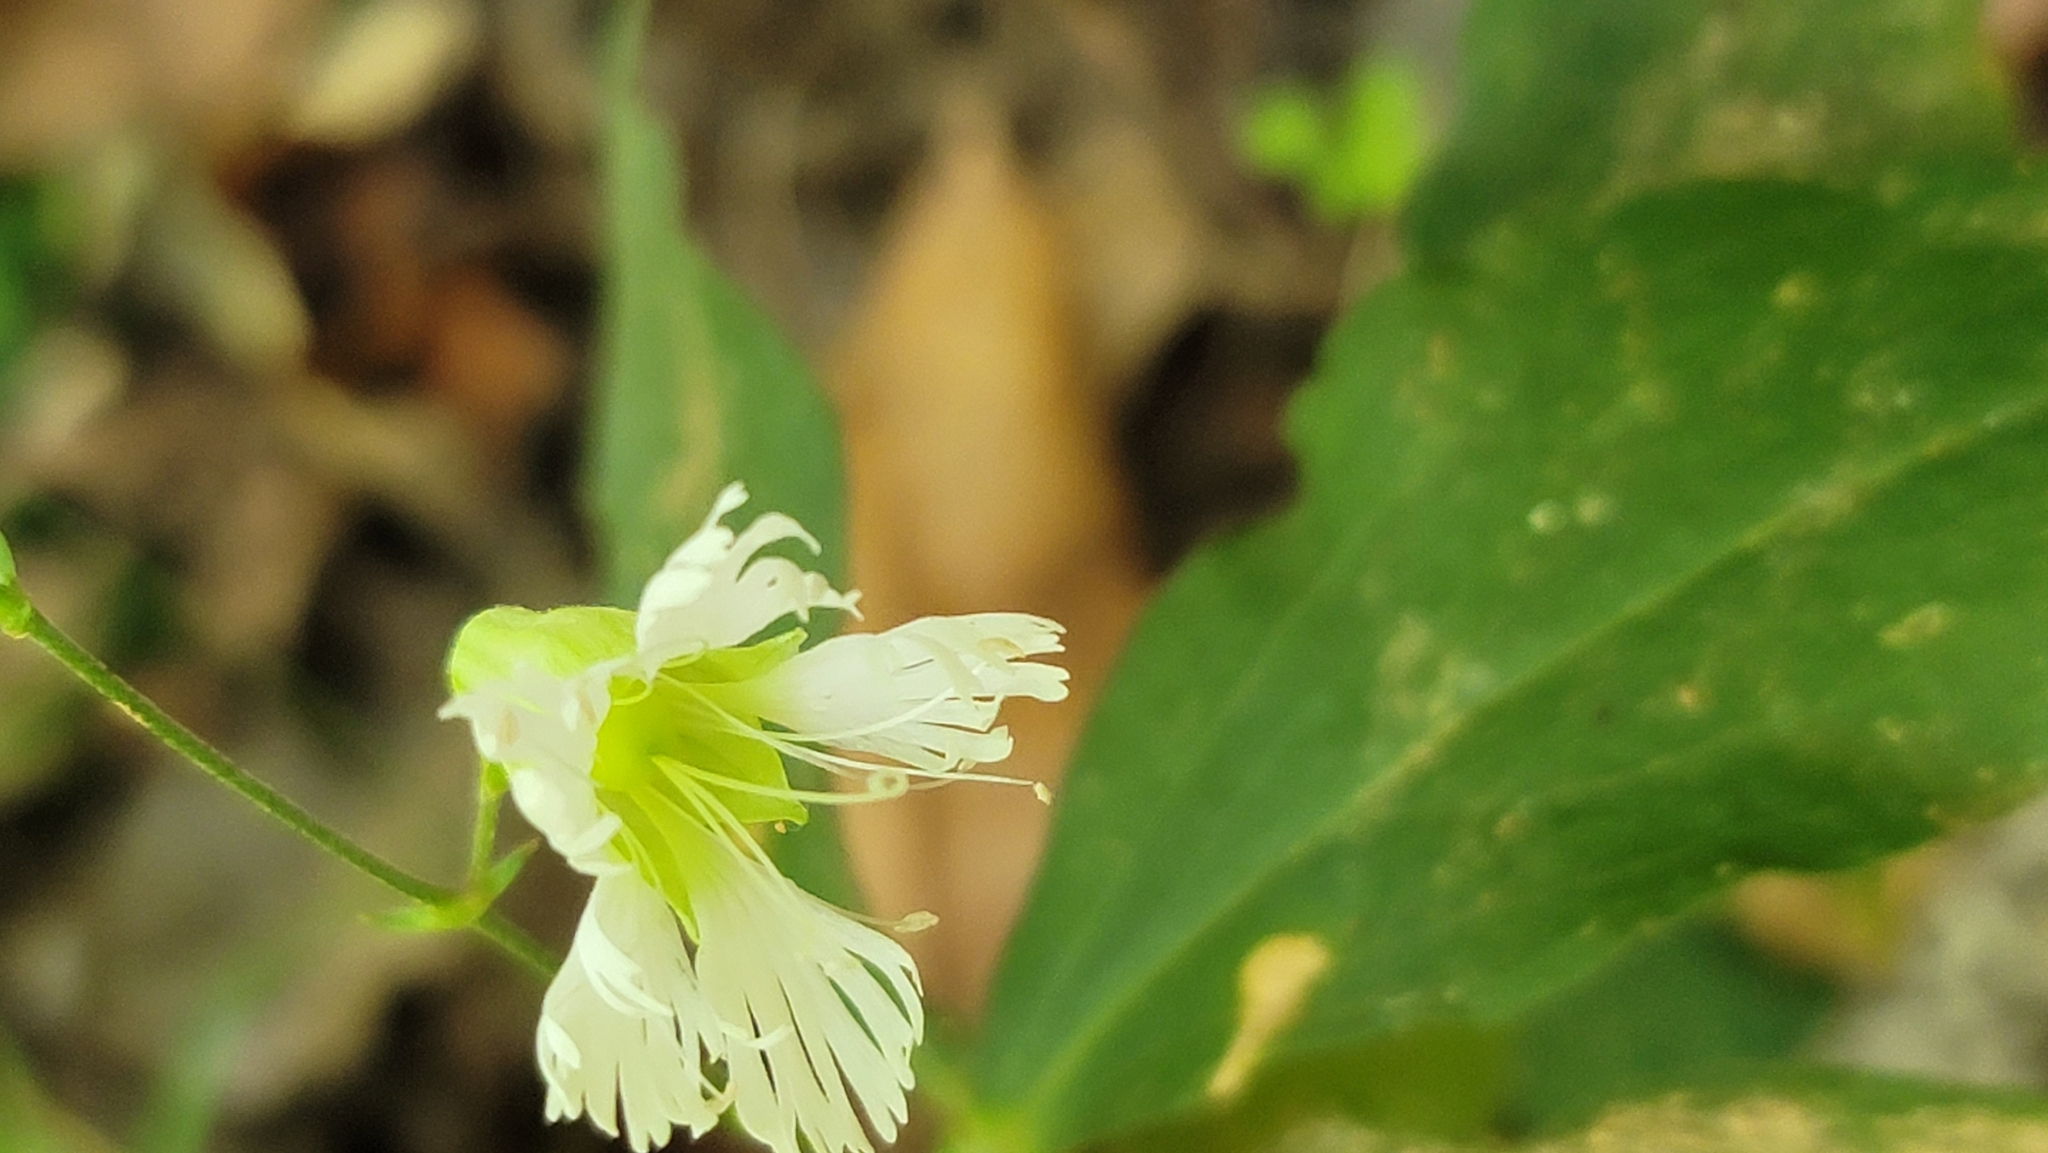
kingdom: Plantae
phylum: Tracheophyta
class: Magnoliopsida
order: Caryophyllales
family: Caryophyllaceae
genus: Silene
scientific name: Silene stellata
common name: Starry campion
